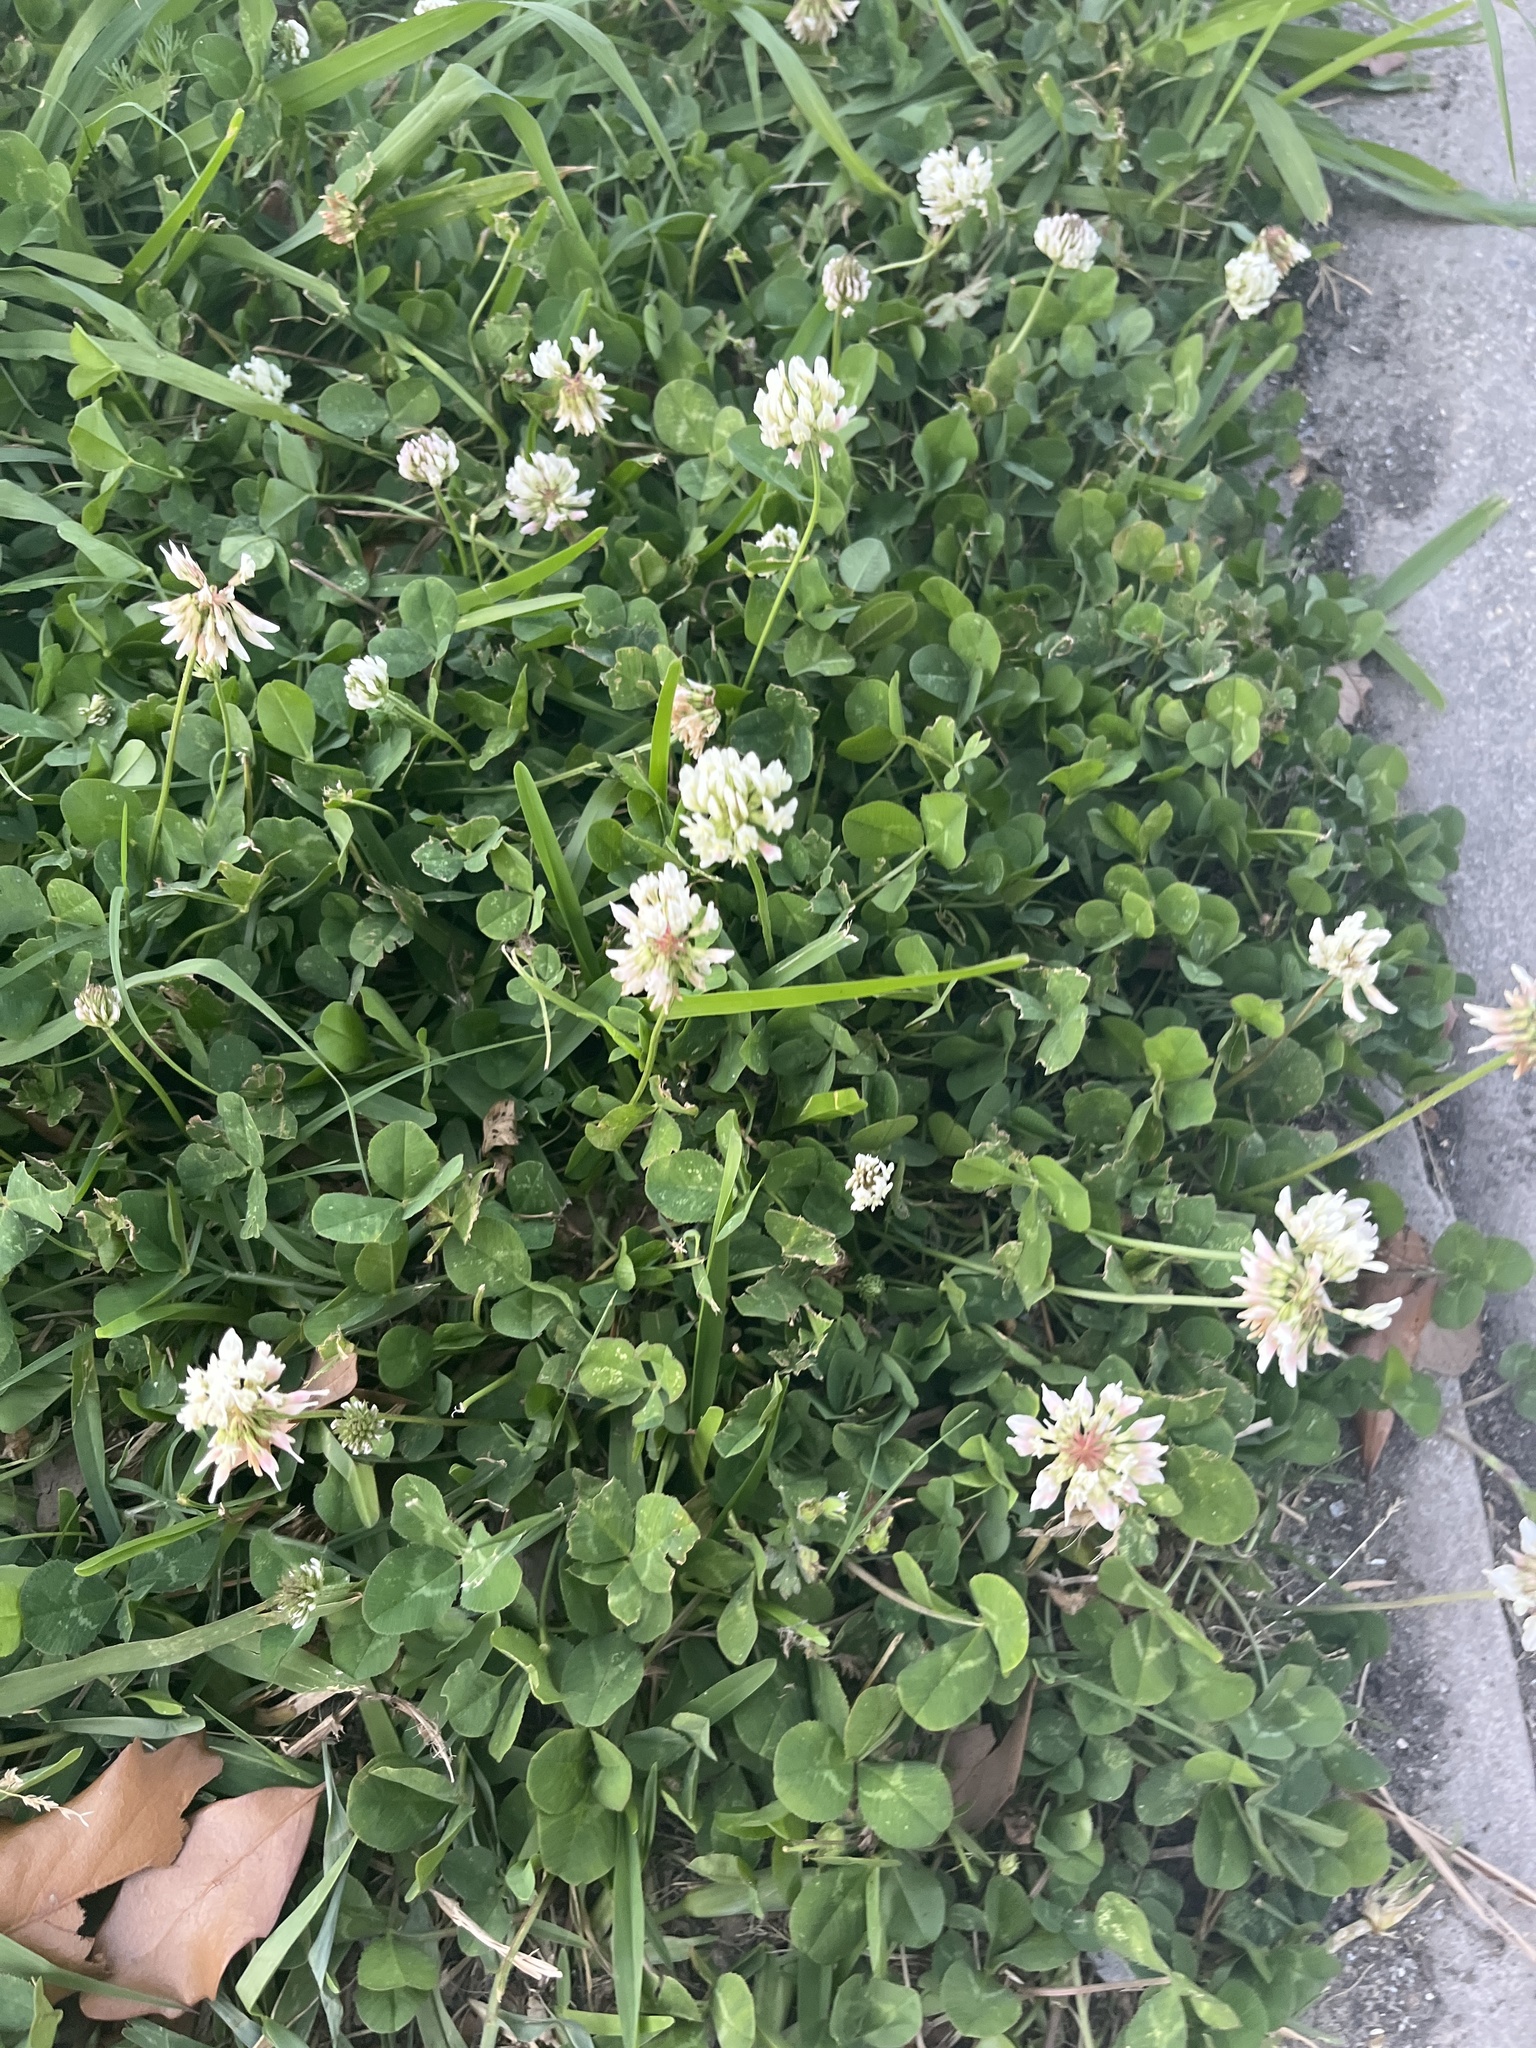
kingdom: Plantae
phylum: Tracheophyta
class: Magnoliopsida
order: Fabales
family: Fabaceae
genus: Trifolium
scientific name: Trifolium repens
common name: White clover
